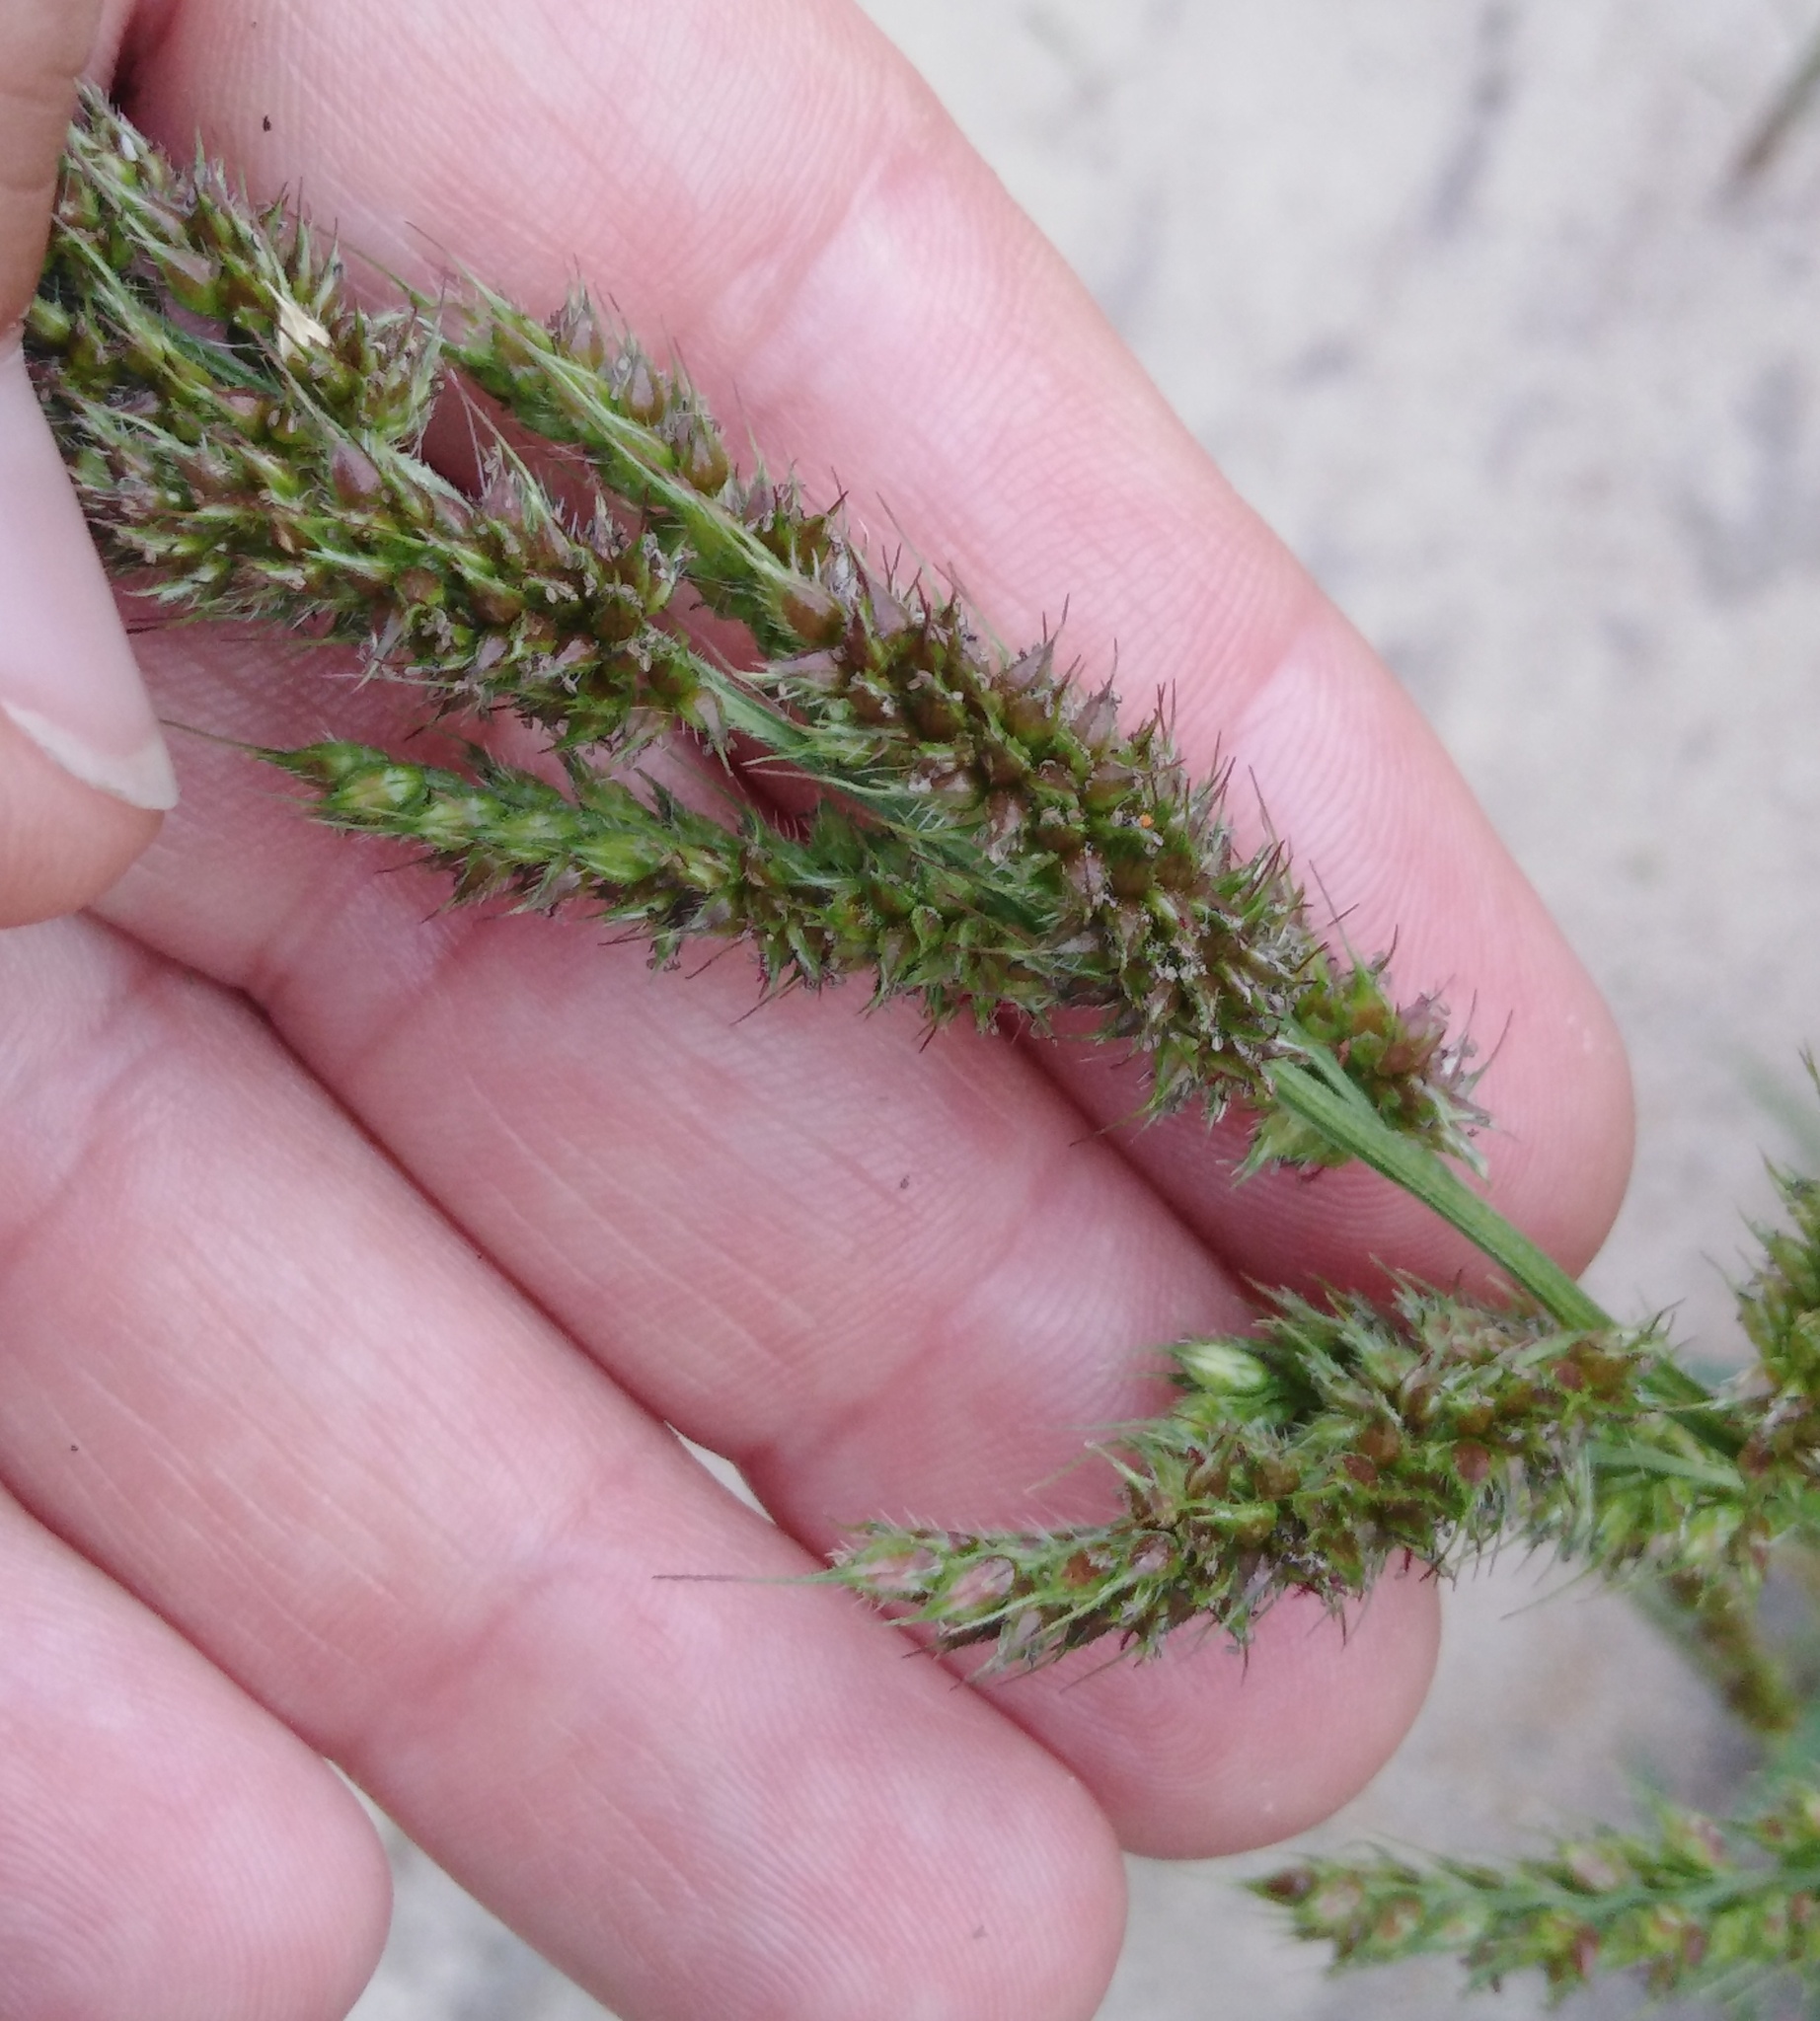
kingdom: Plantae
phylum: Tracheophyta
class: Liliopsida
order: Poales
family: Poaceae
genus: Echinochloa
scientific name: Echinochloa crus-galli
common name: Cockspur
